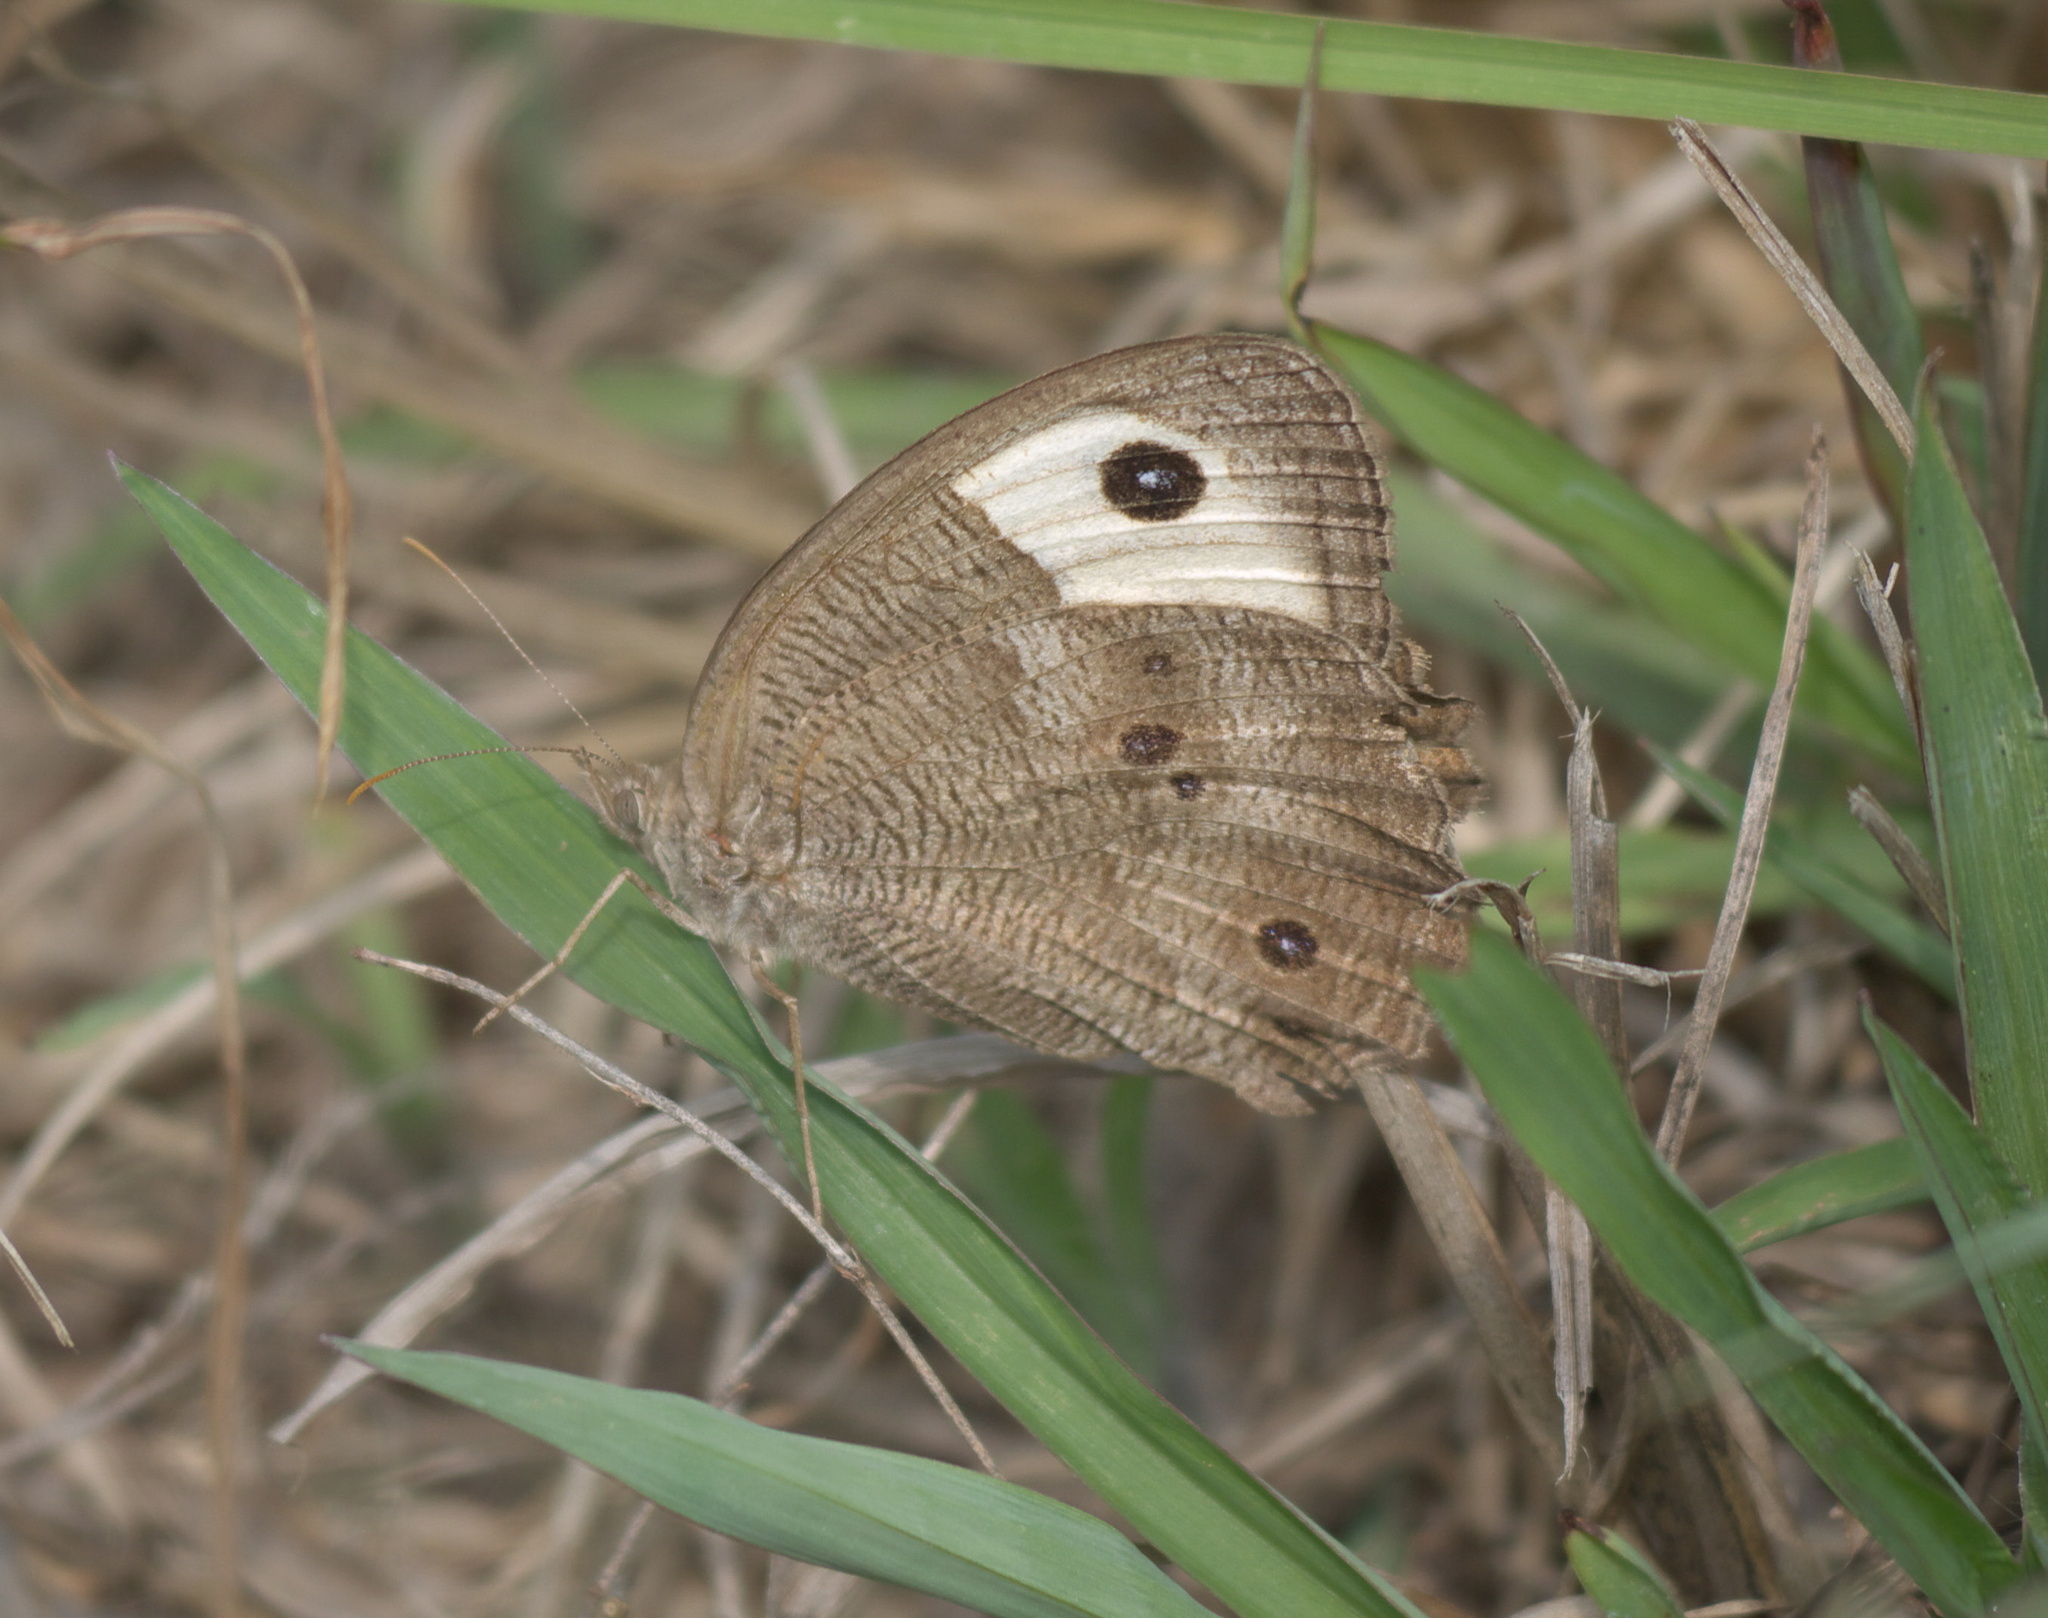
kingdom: Animalia
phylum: Arthropoda
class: Insecta
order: Lepidoptera
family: Nymphalidae
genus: Cercyonis
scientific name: Cercyonis pegala
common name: Common wood-nymph
